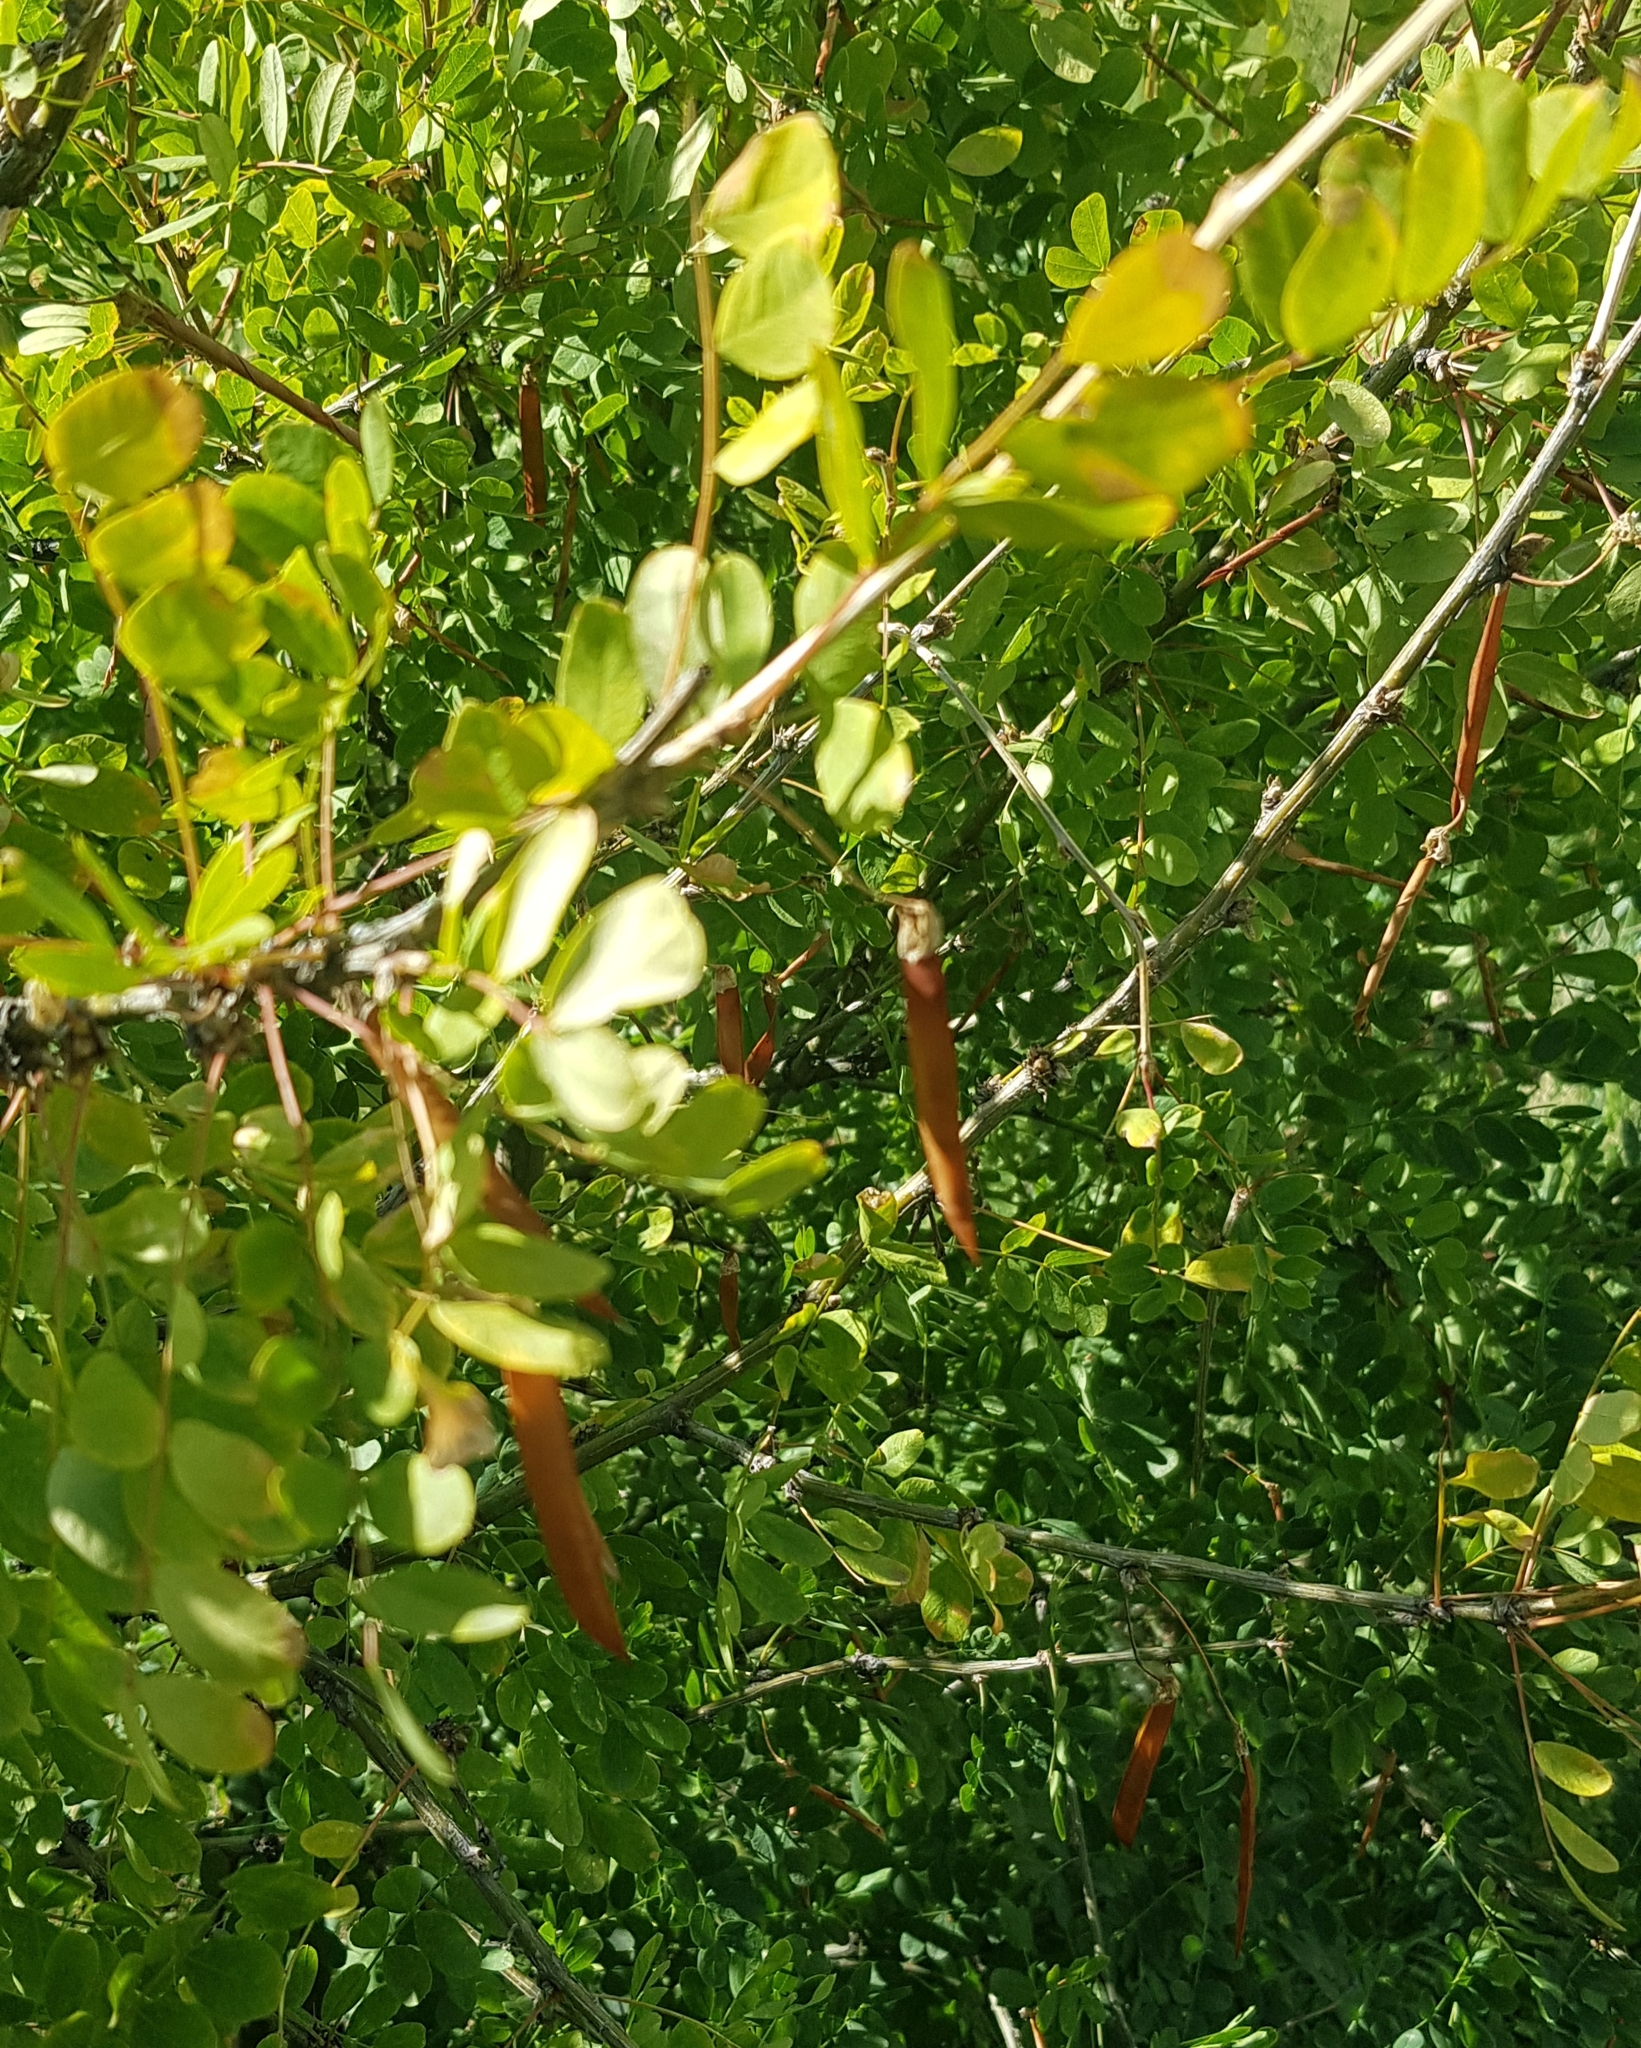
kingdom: Plantae
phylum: Tracheophyta
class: Magnoliopsida
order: Fabales
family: Fabaceae
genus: Caragana
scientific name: Caragana arborescens
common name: Siberian peashrub
